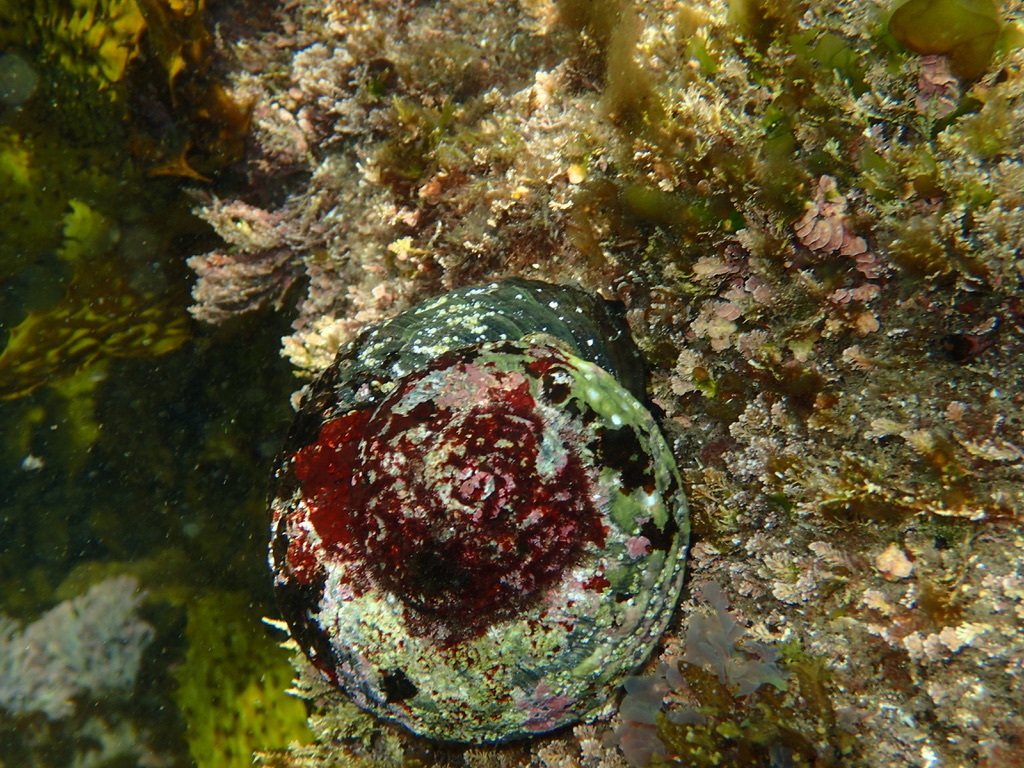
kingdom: Animalia
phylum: Mollusca
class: Gastropoda
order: Trochida
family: Turbinidae
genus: Lunella
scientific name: Lunella torquata
